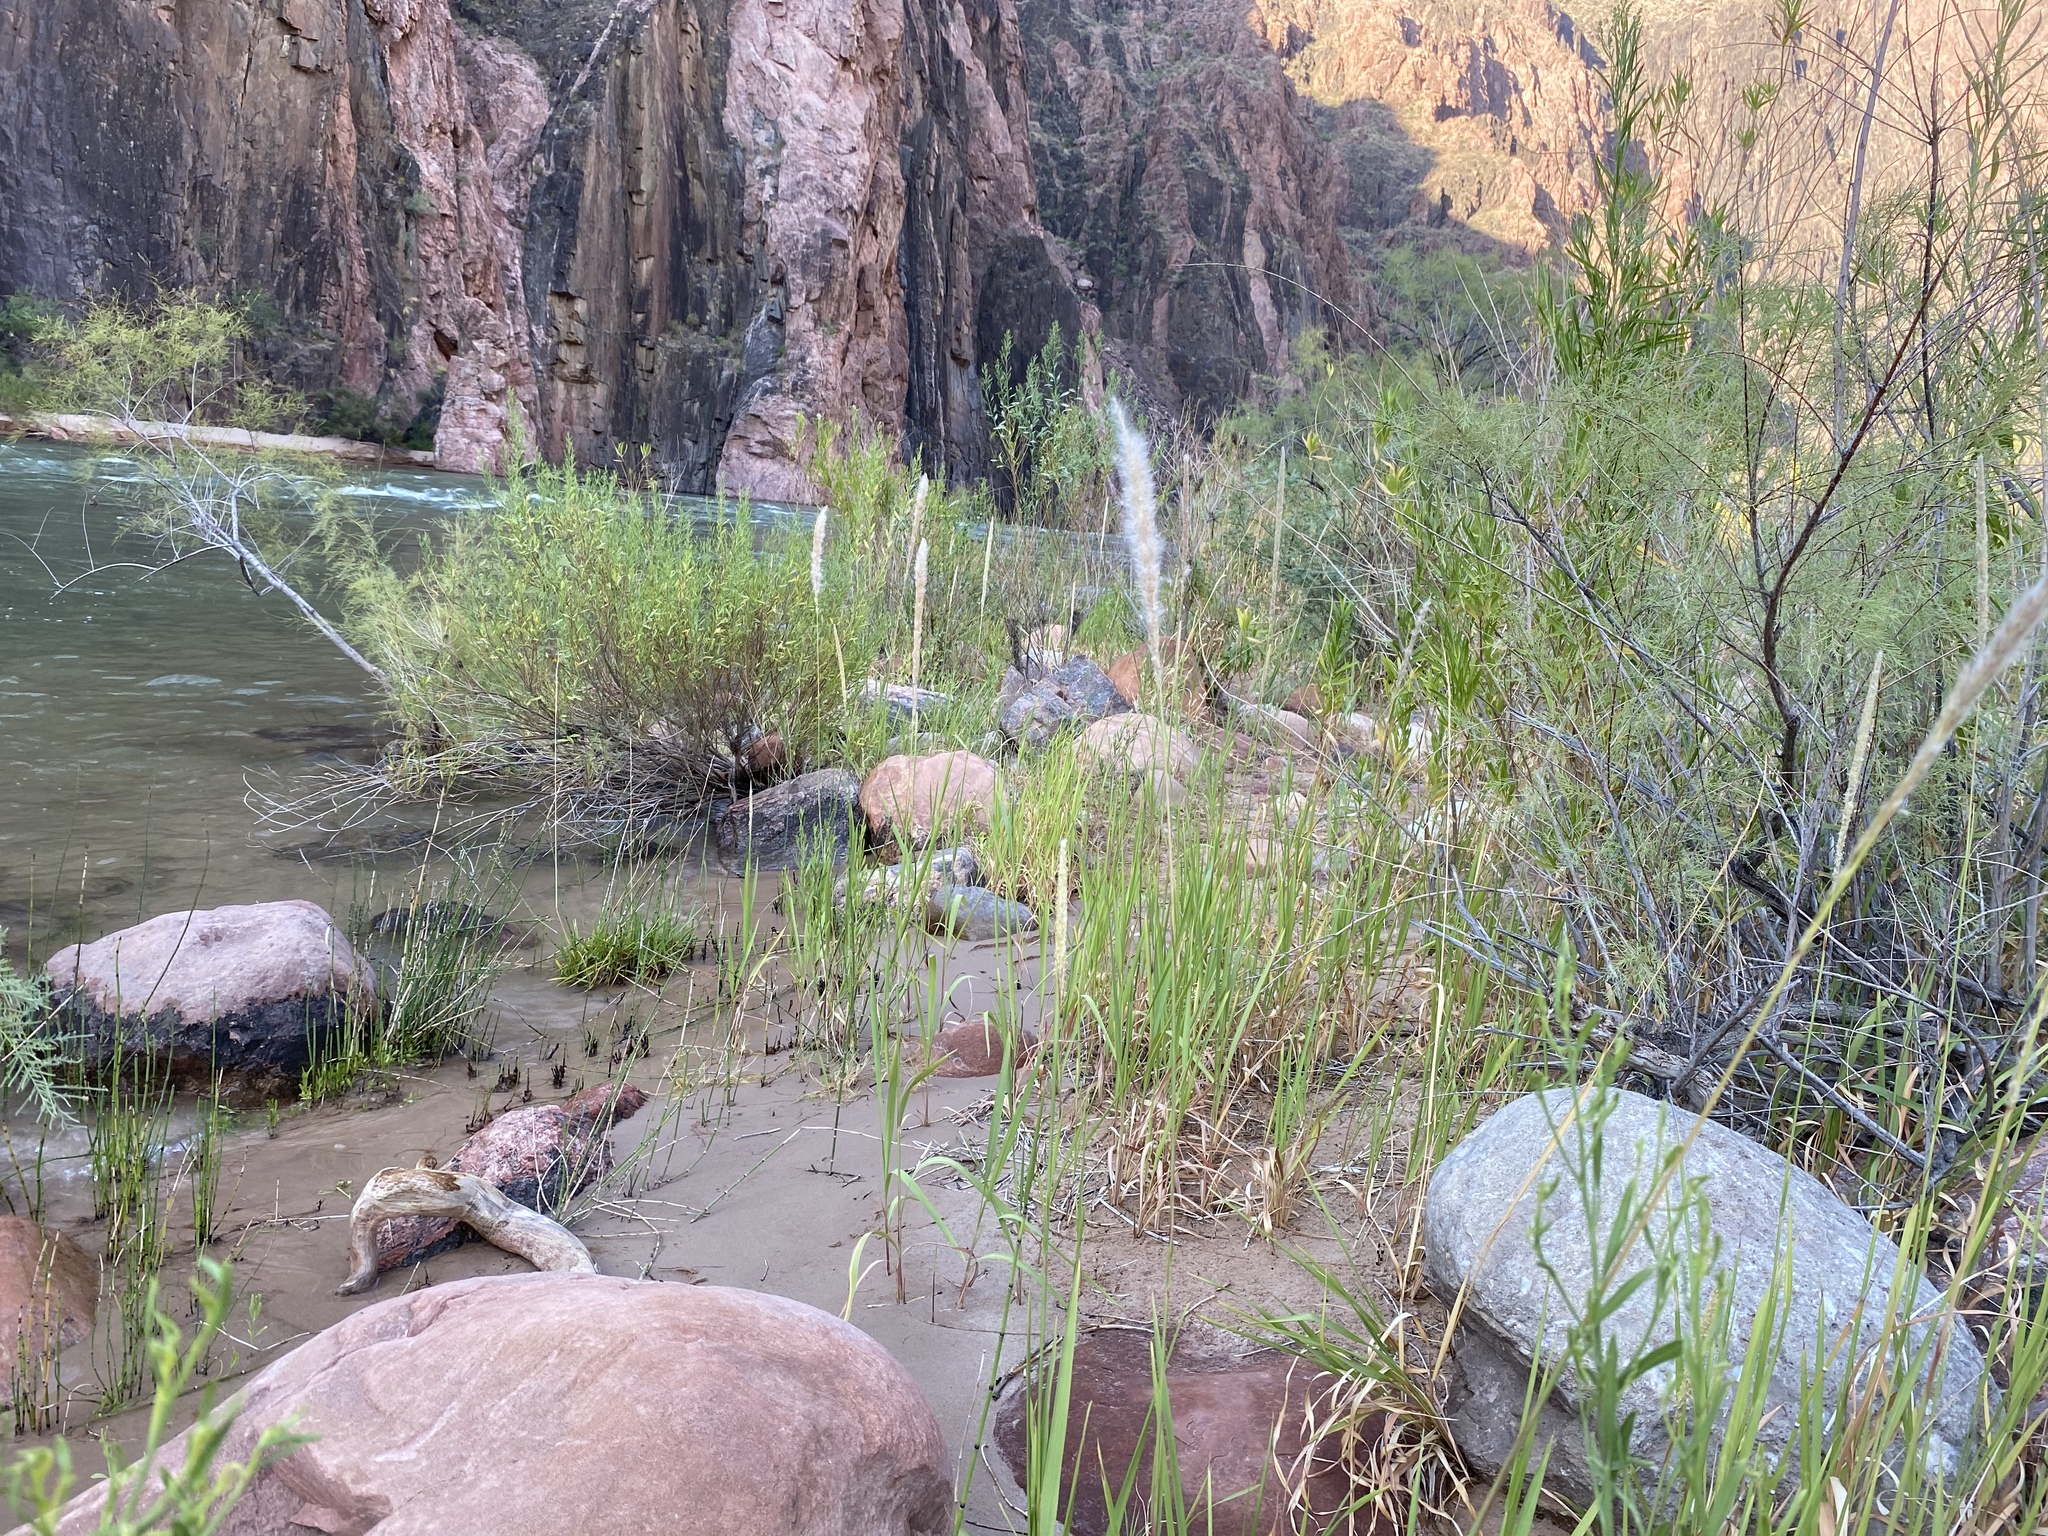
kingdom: Plantae
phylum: Tracheophyta
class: Liliopsida
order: Poales
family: Poaceae
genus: Imperata
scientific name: Imperata brevifolia
